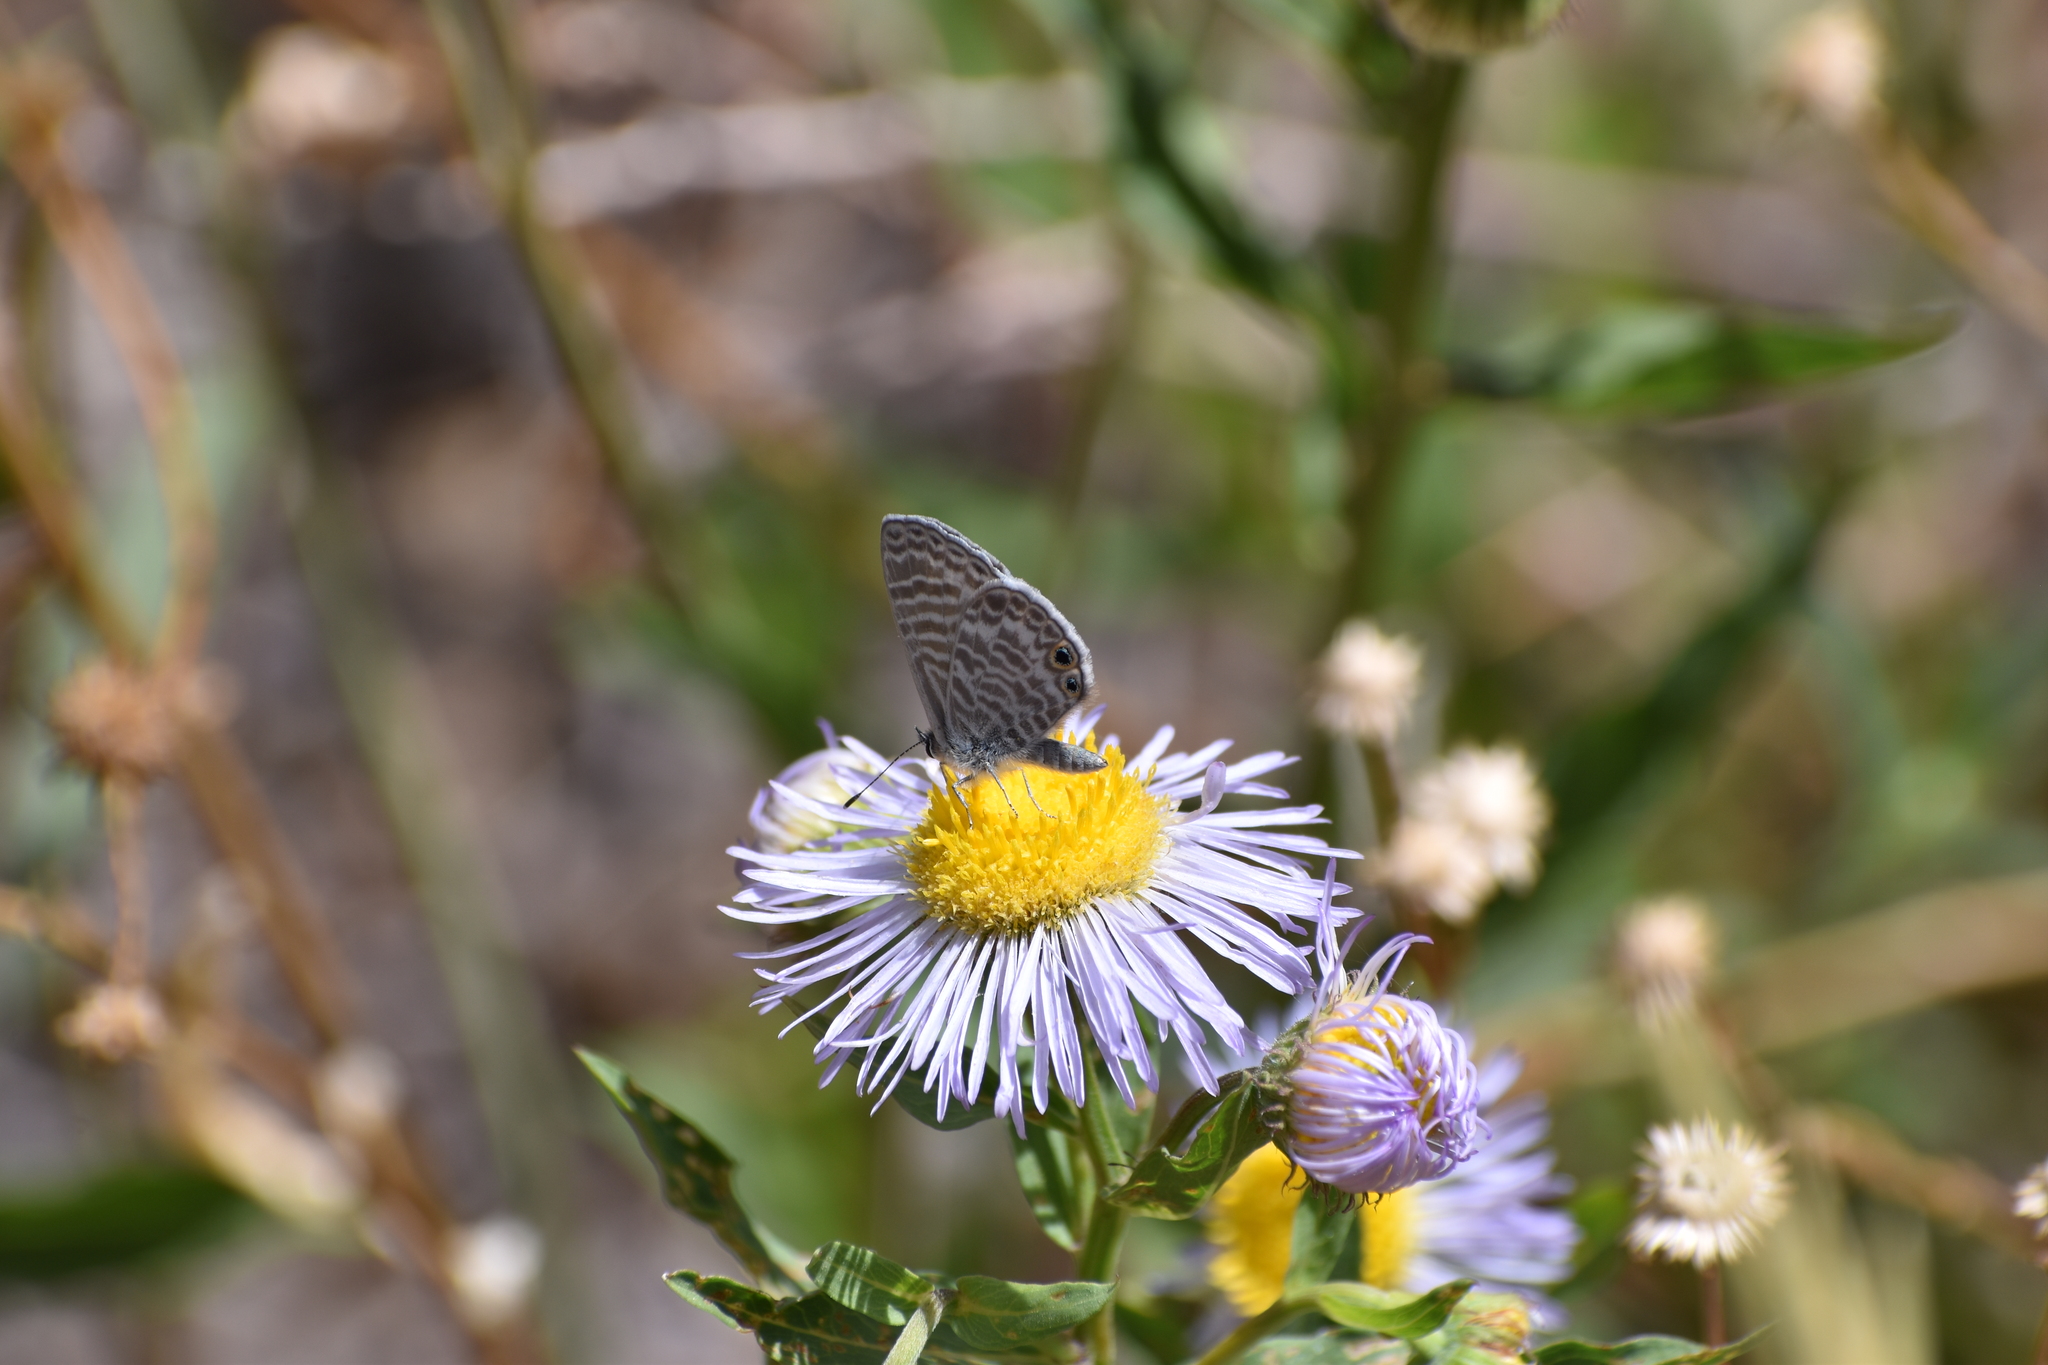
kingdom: Animalia
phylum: Arthropoda
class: Insecta
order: Lepidoptera
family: Lycaenidae
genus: Leptotes
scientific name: Leptotes marina
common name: Marine blue
